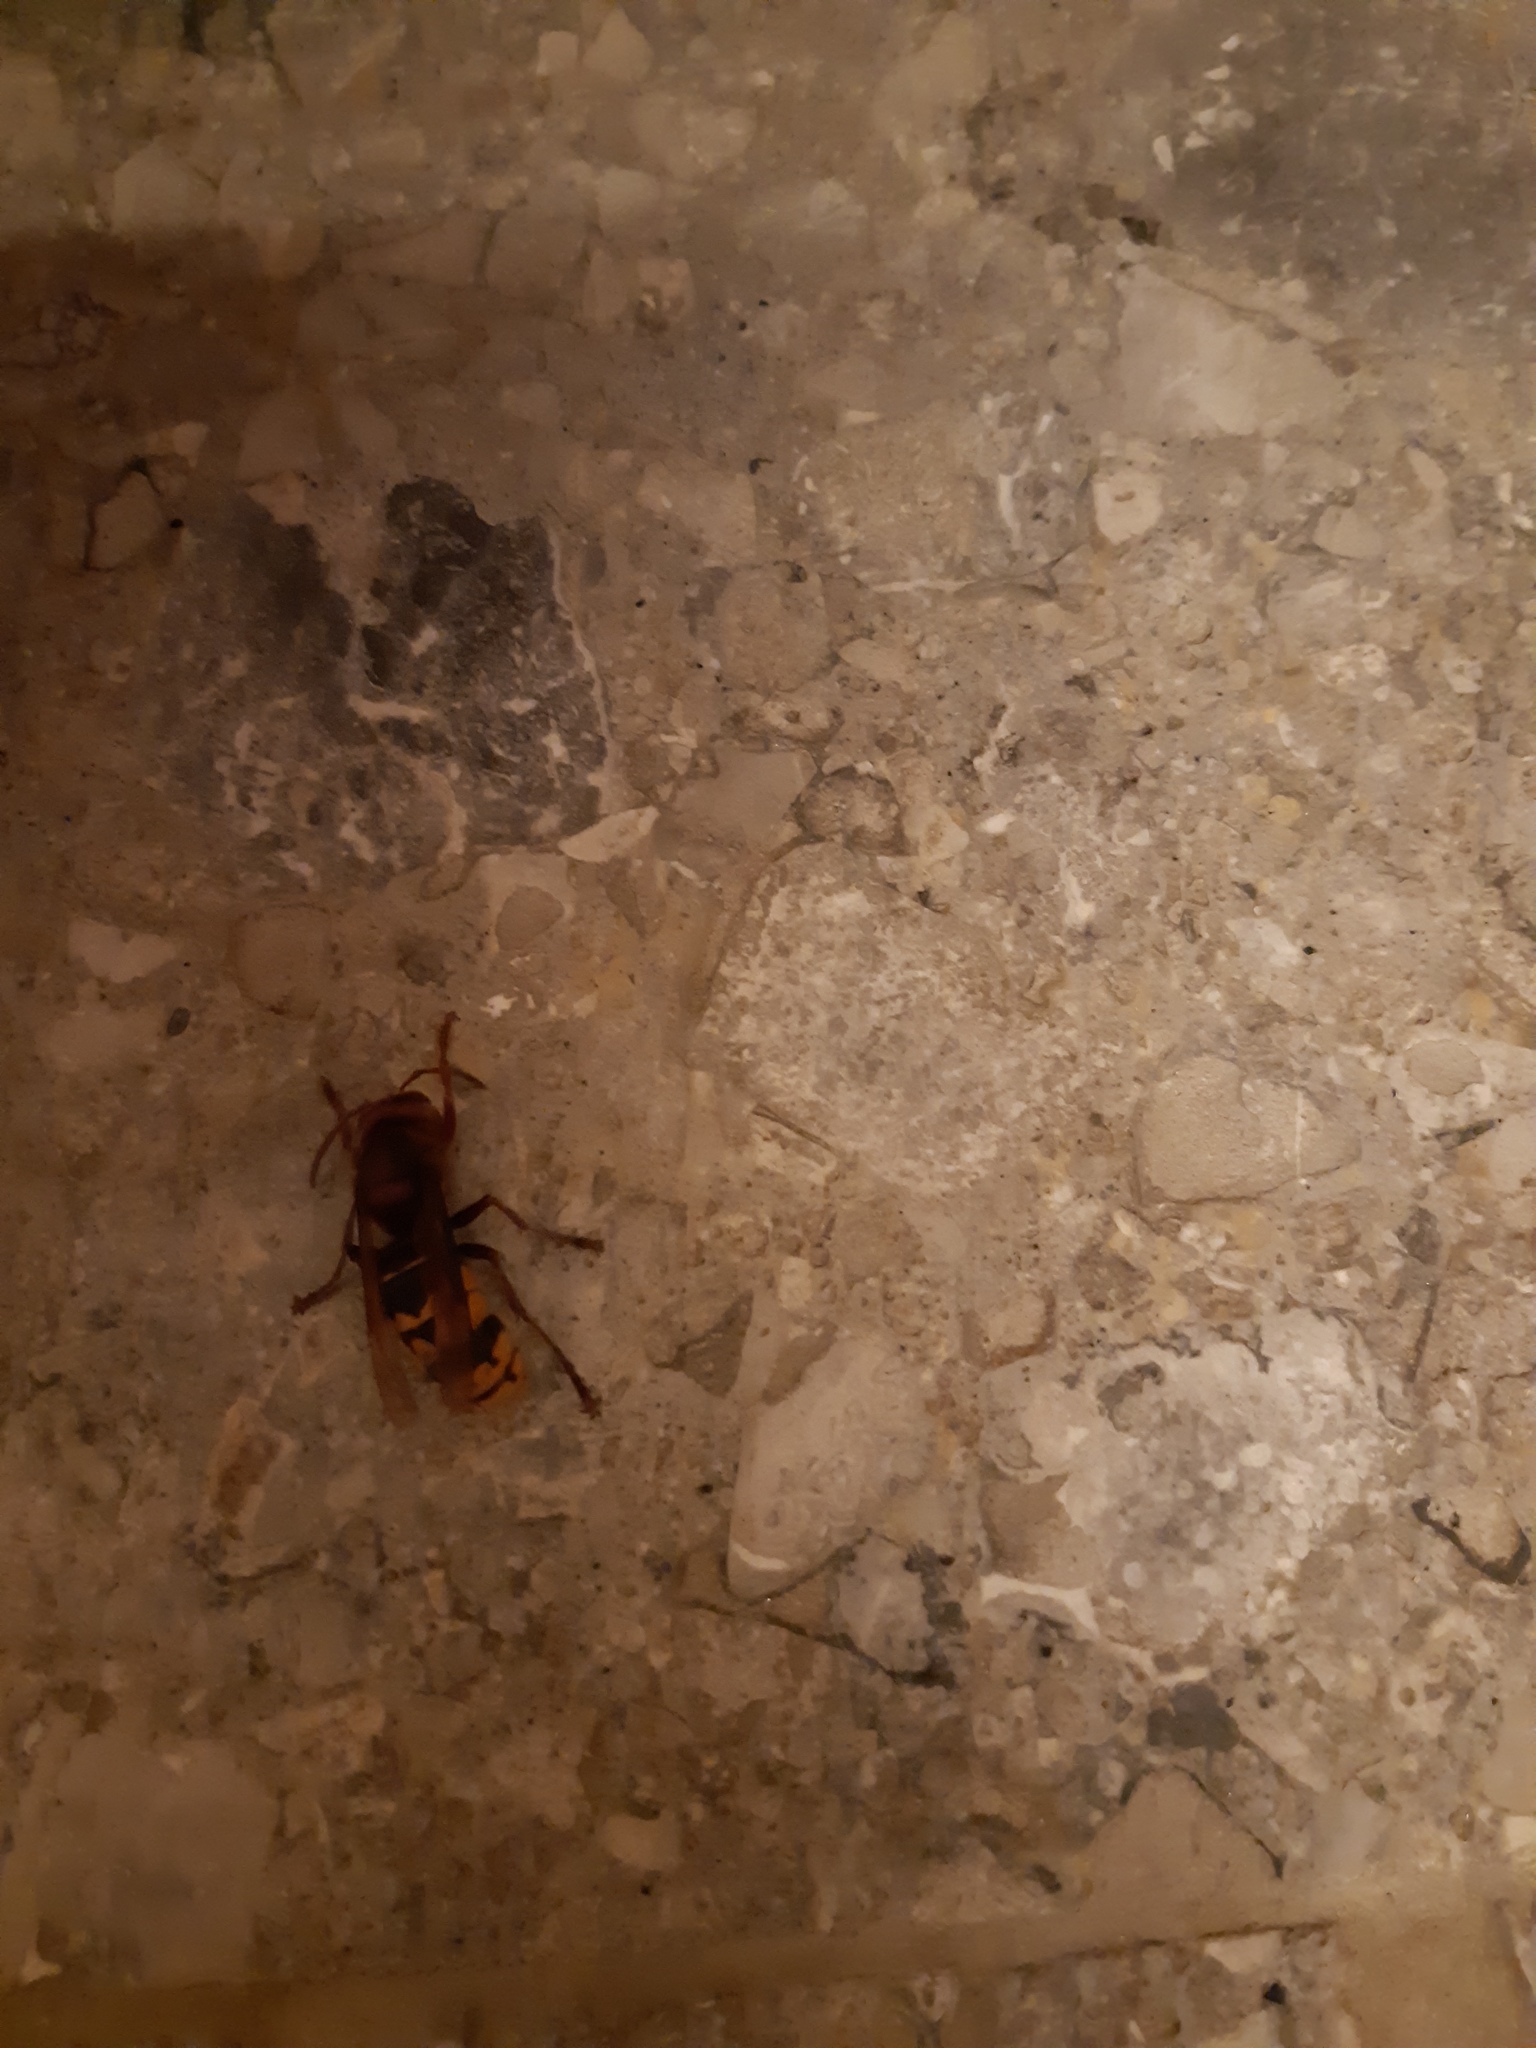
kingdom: Animalia
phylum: Arthropoda
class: Insecta
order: Hymenoptera
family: Vespidae
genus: Vespa
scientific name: Vespa crabro
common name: Hornet
